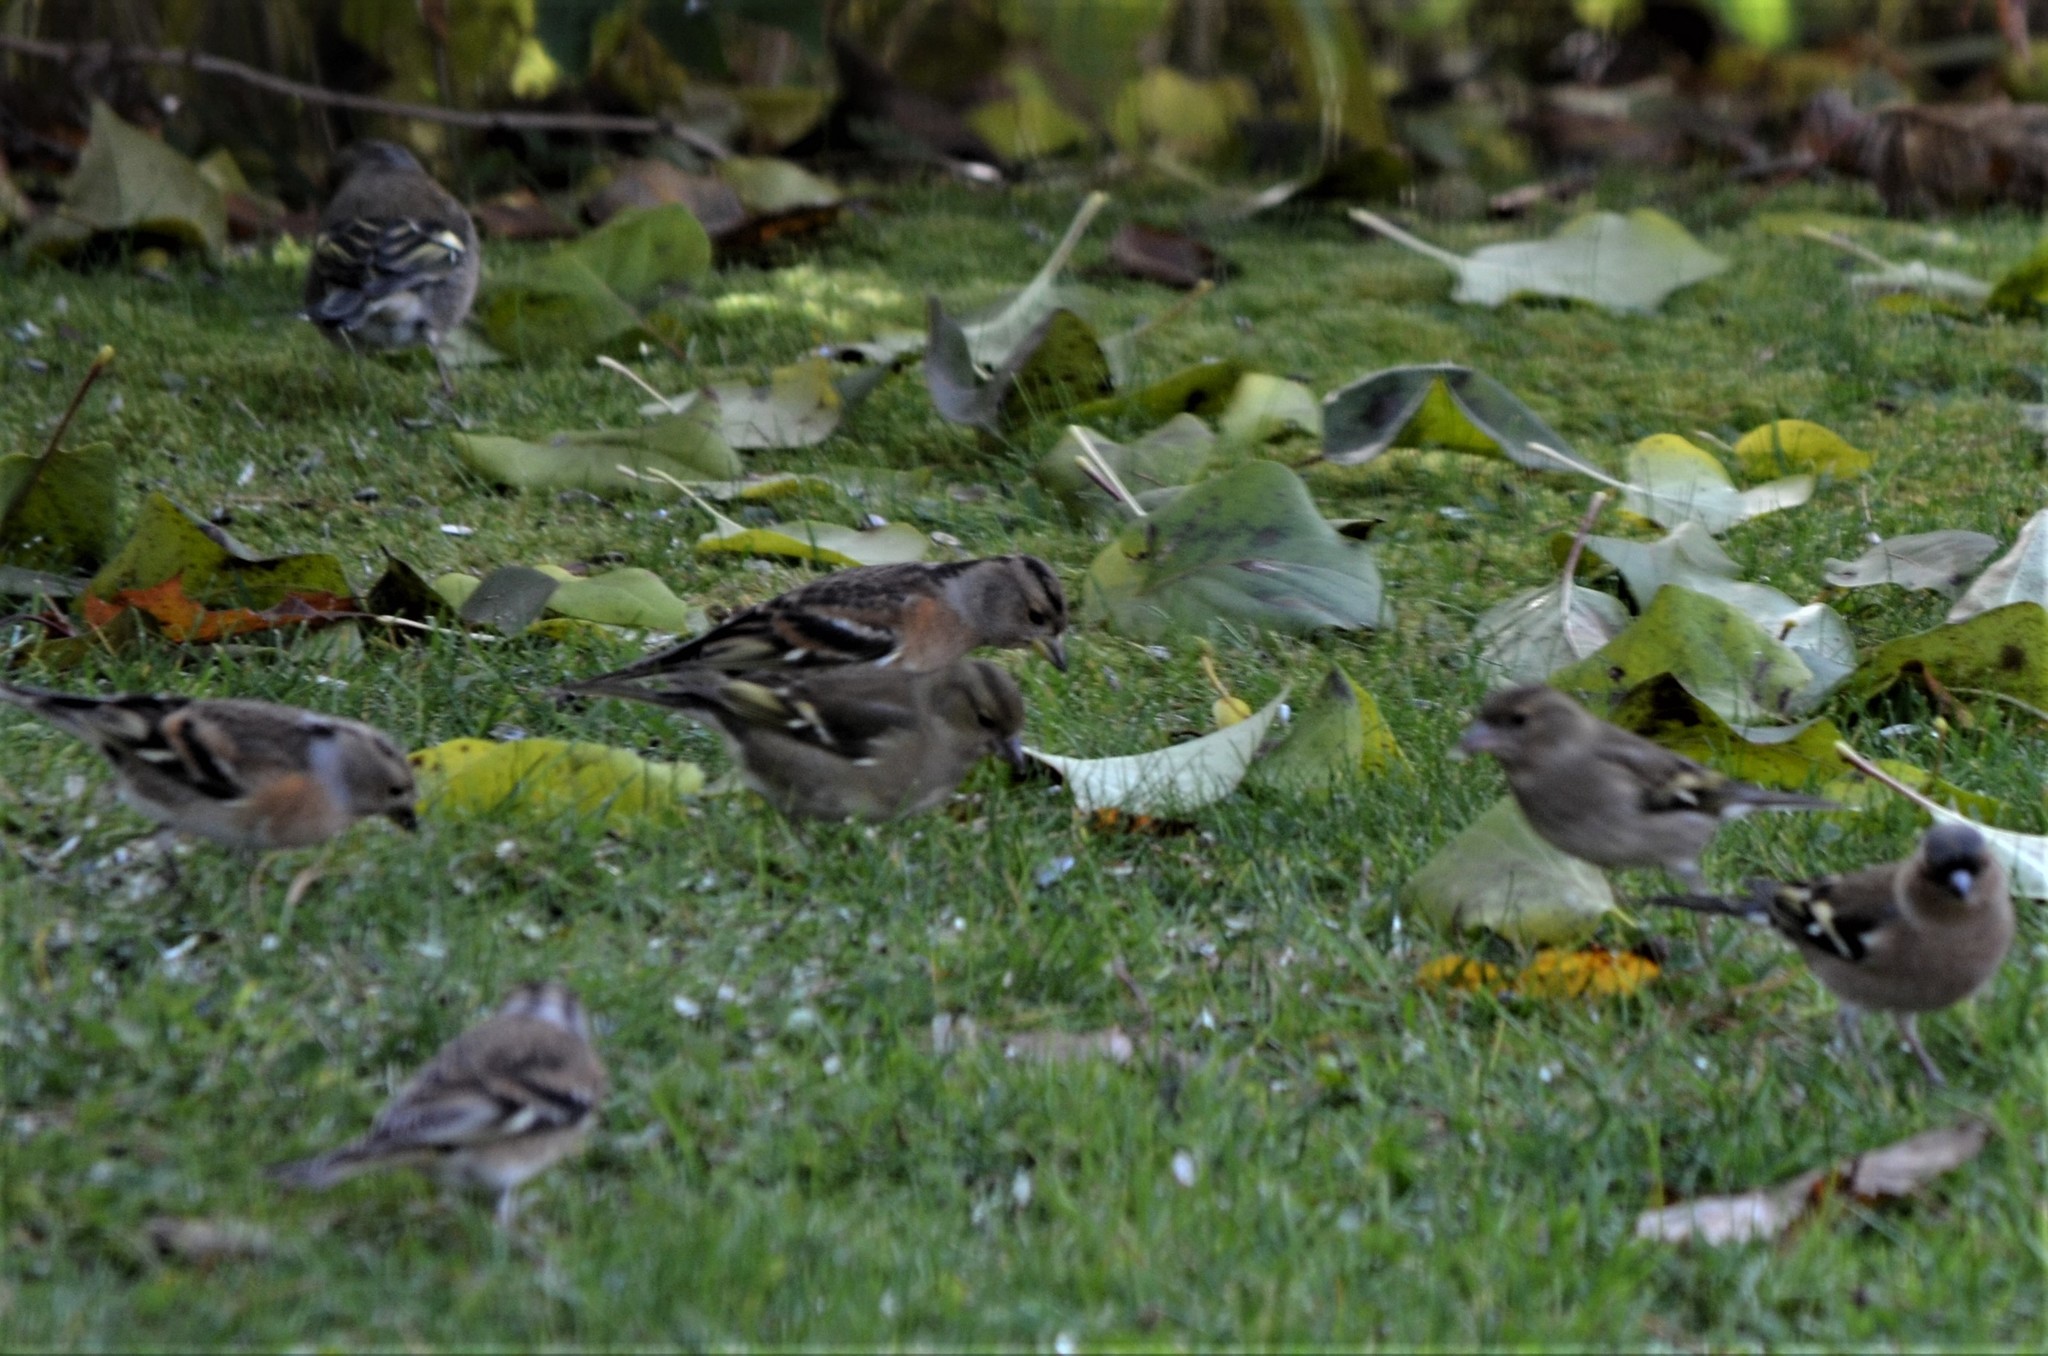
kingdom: Animalia
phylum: Chordata
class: Aves
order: Passeriformes
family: Fringillidae
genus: Fringilla
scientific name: Fringilla montifringilla
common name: Brambling
